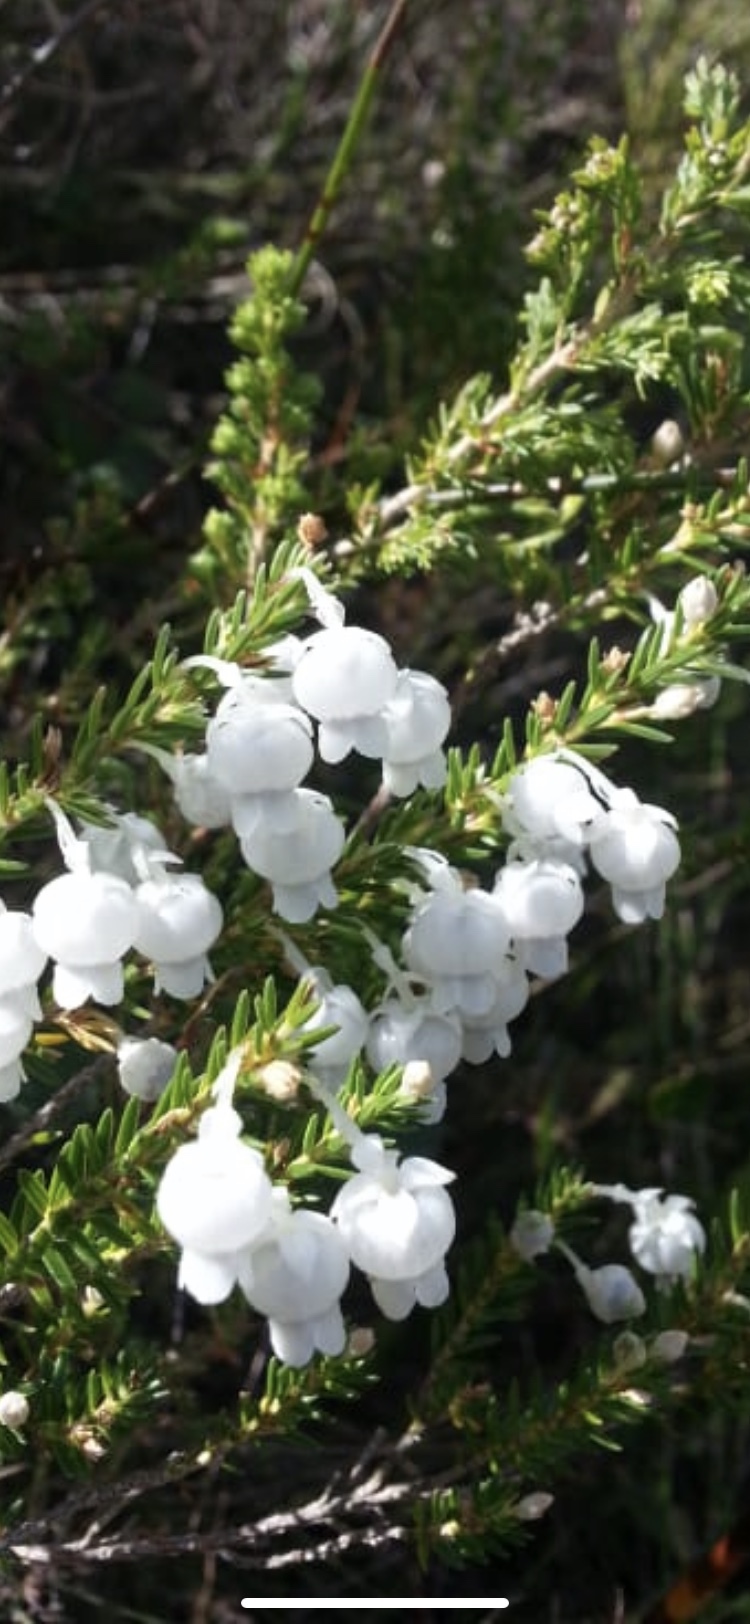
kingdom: Plantae
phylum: Tracheophyta
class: Magnoliopsida
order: Ericales
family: Ericaceae
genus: Erica
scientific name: Erica syngenesia
